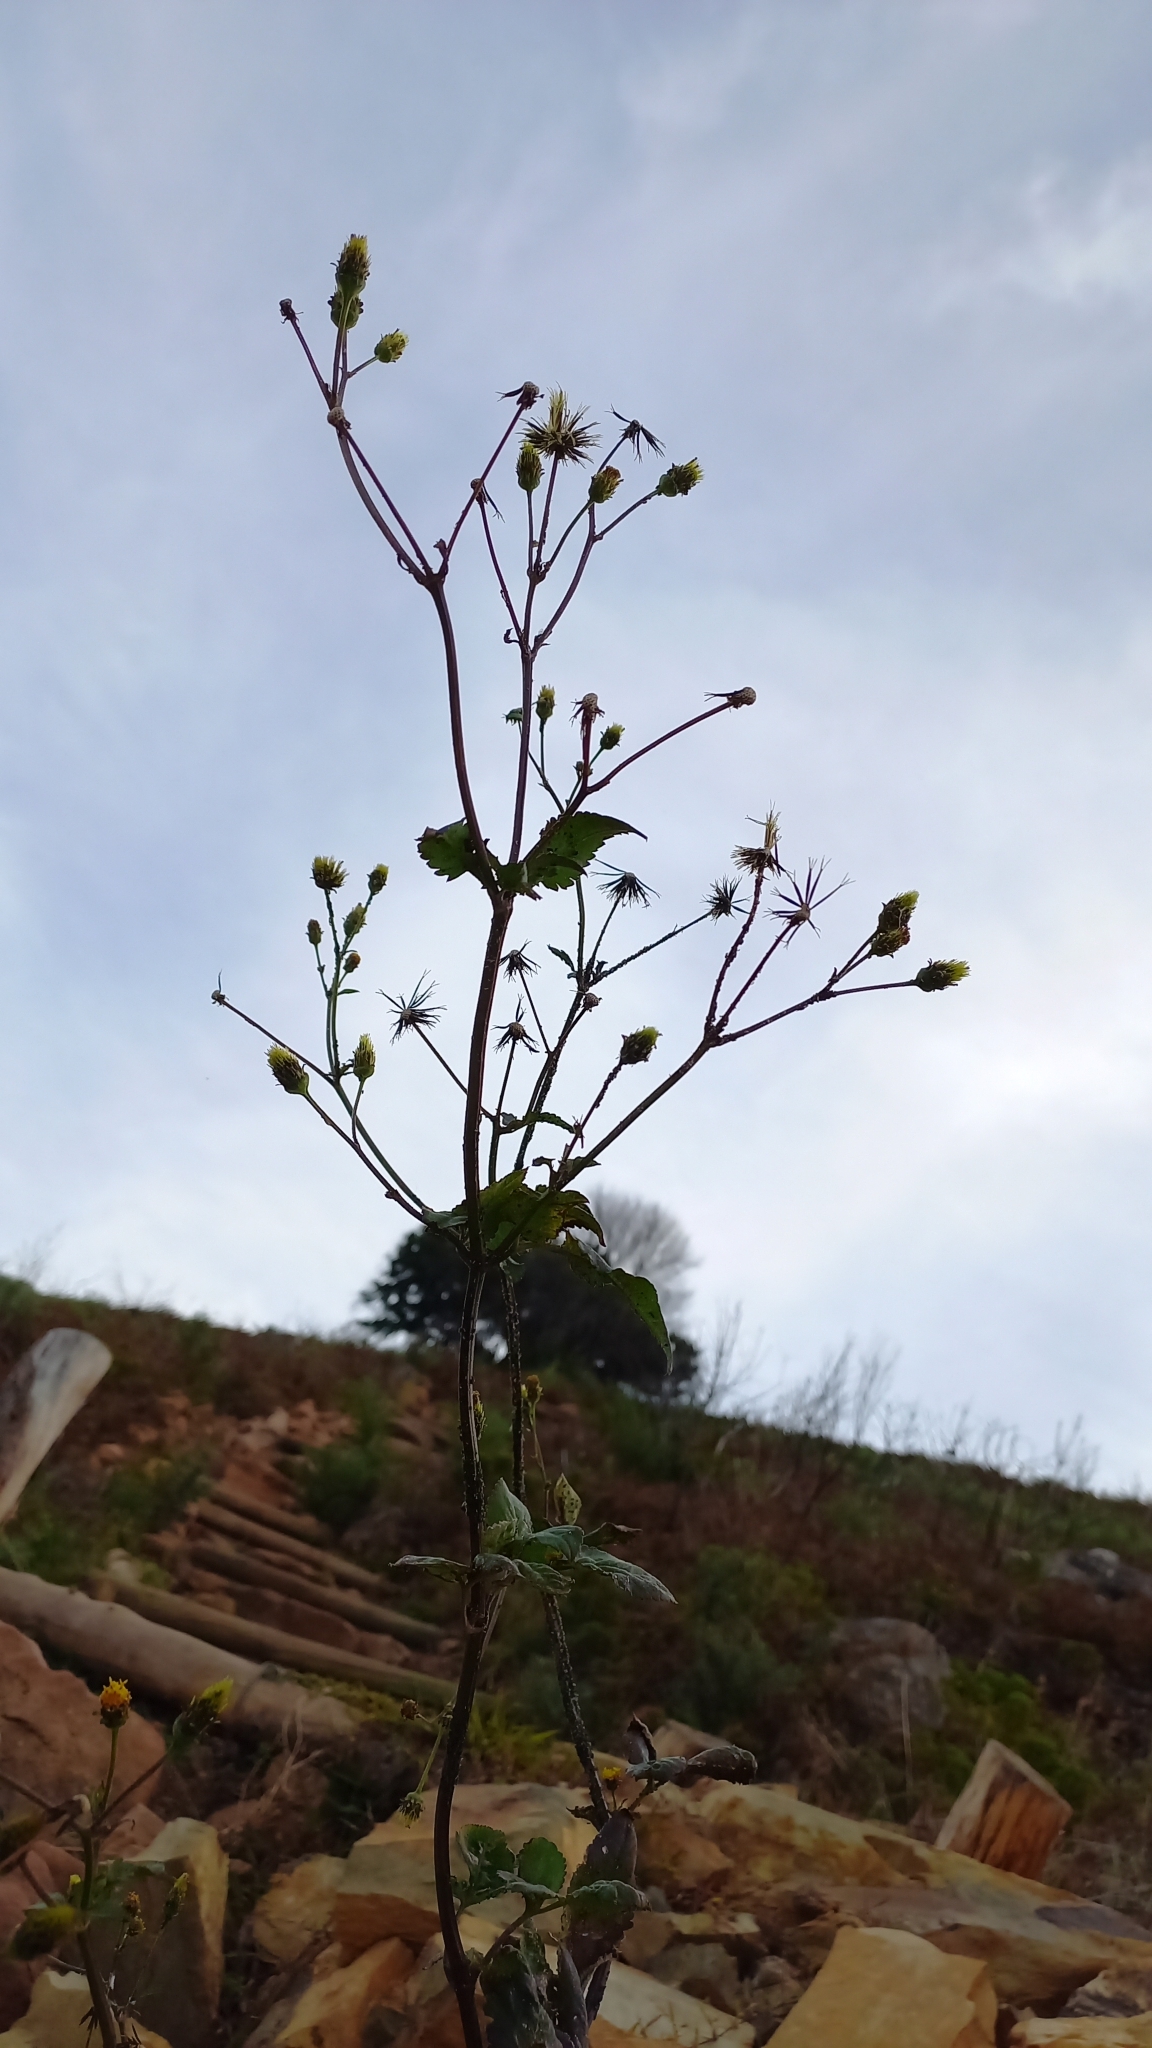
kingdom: Plantae
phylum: Tracheophyta
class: Magnoliopsida
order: Asterales
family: Asteraceae
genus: Bidens
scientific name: Bidens pilosa
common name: Black-jack
